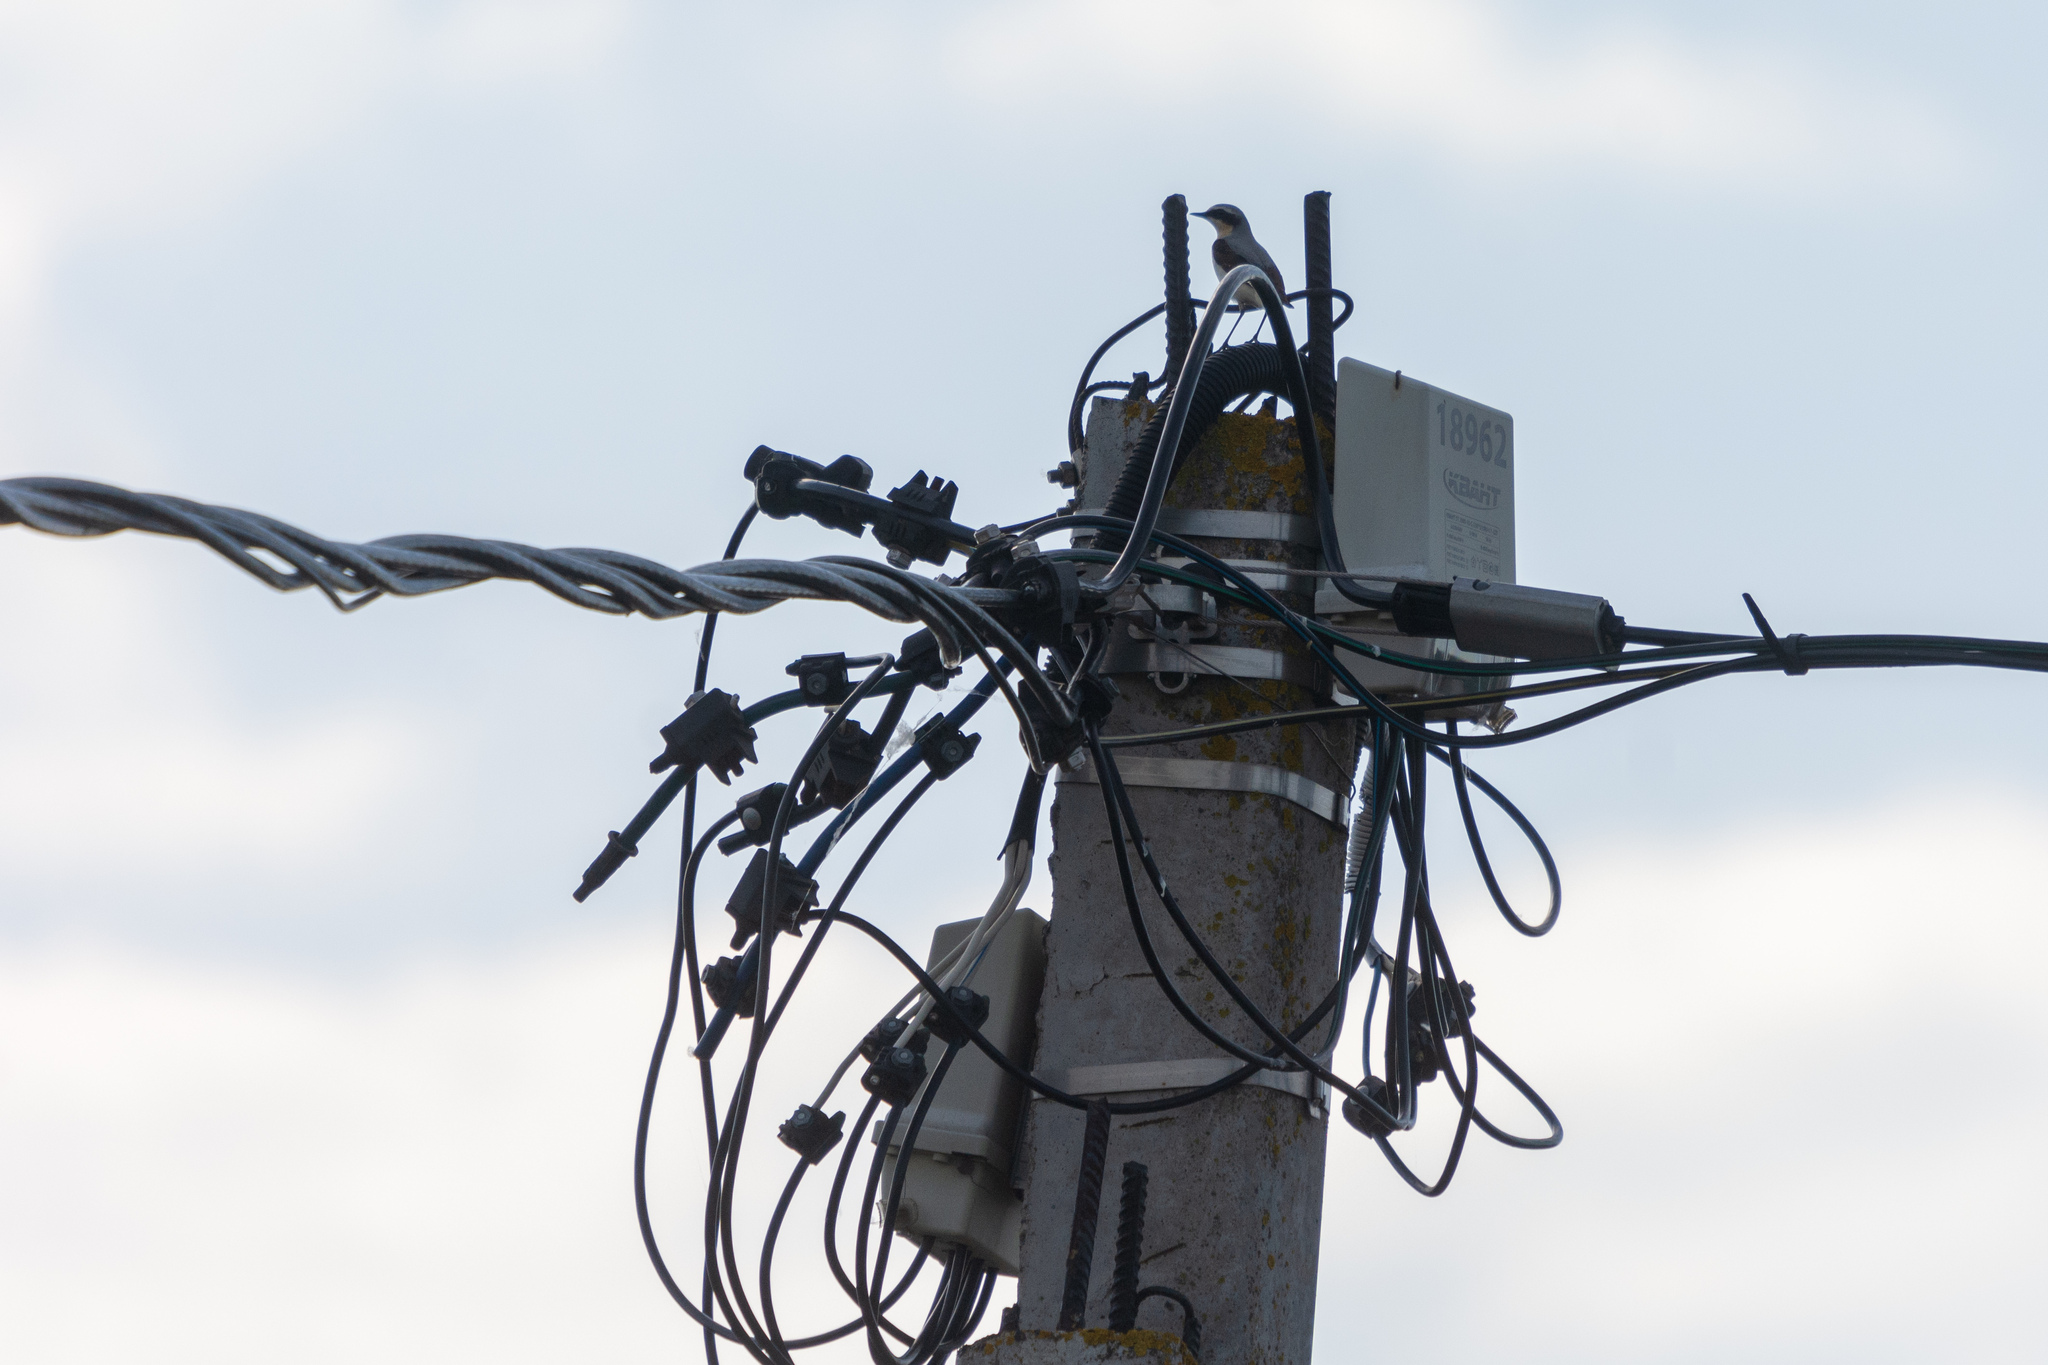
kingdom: Animalia
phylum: Chordata
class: Aves
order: Passeriformes
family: Muscicapidae
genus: Oenanthe
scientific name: Oenanthe oenanthe
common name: Northern wheatear
